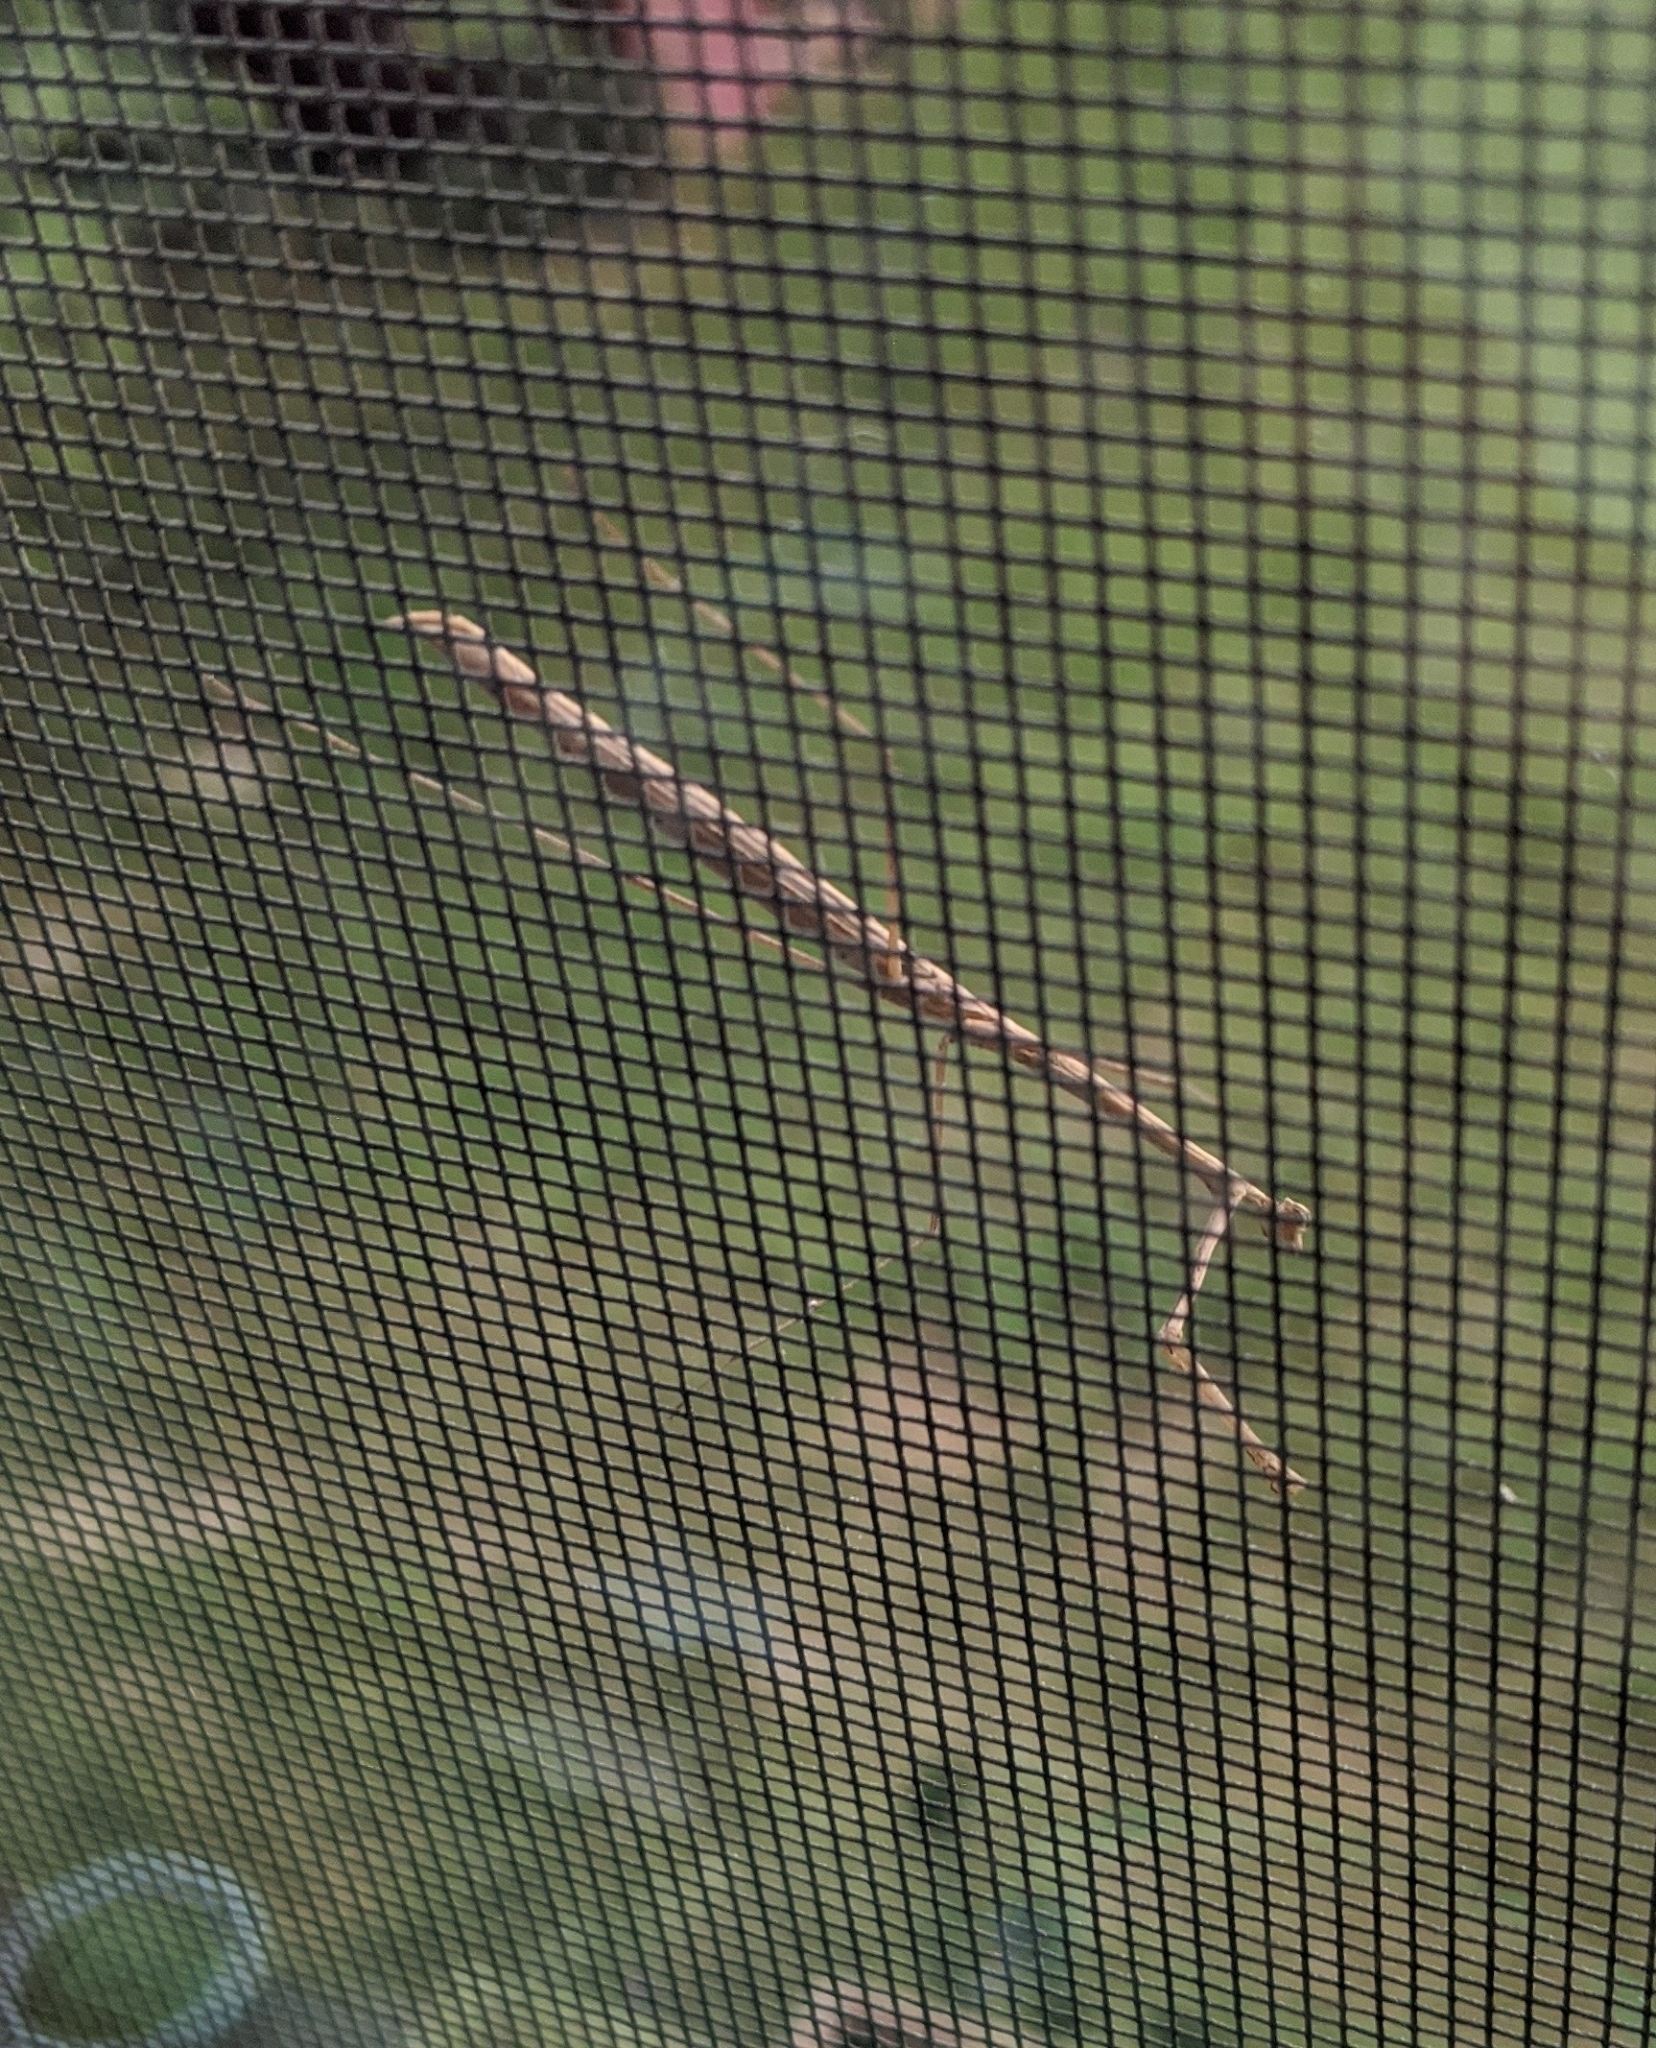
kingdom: Animalia
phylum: Arthropoda
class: Insecta
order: Mantodea
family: Thespidae
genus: Thesprotia
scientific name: Thesprotia graminis
